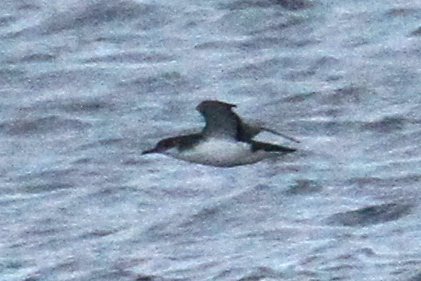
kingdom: Animalia
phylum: Chordata
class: Aves
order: Procellariiformes
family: Procellariidae
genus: Puffinus
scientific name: Puffinus puffinus
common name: Manx shearwater
